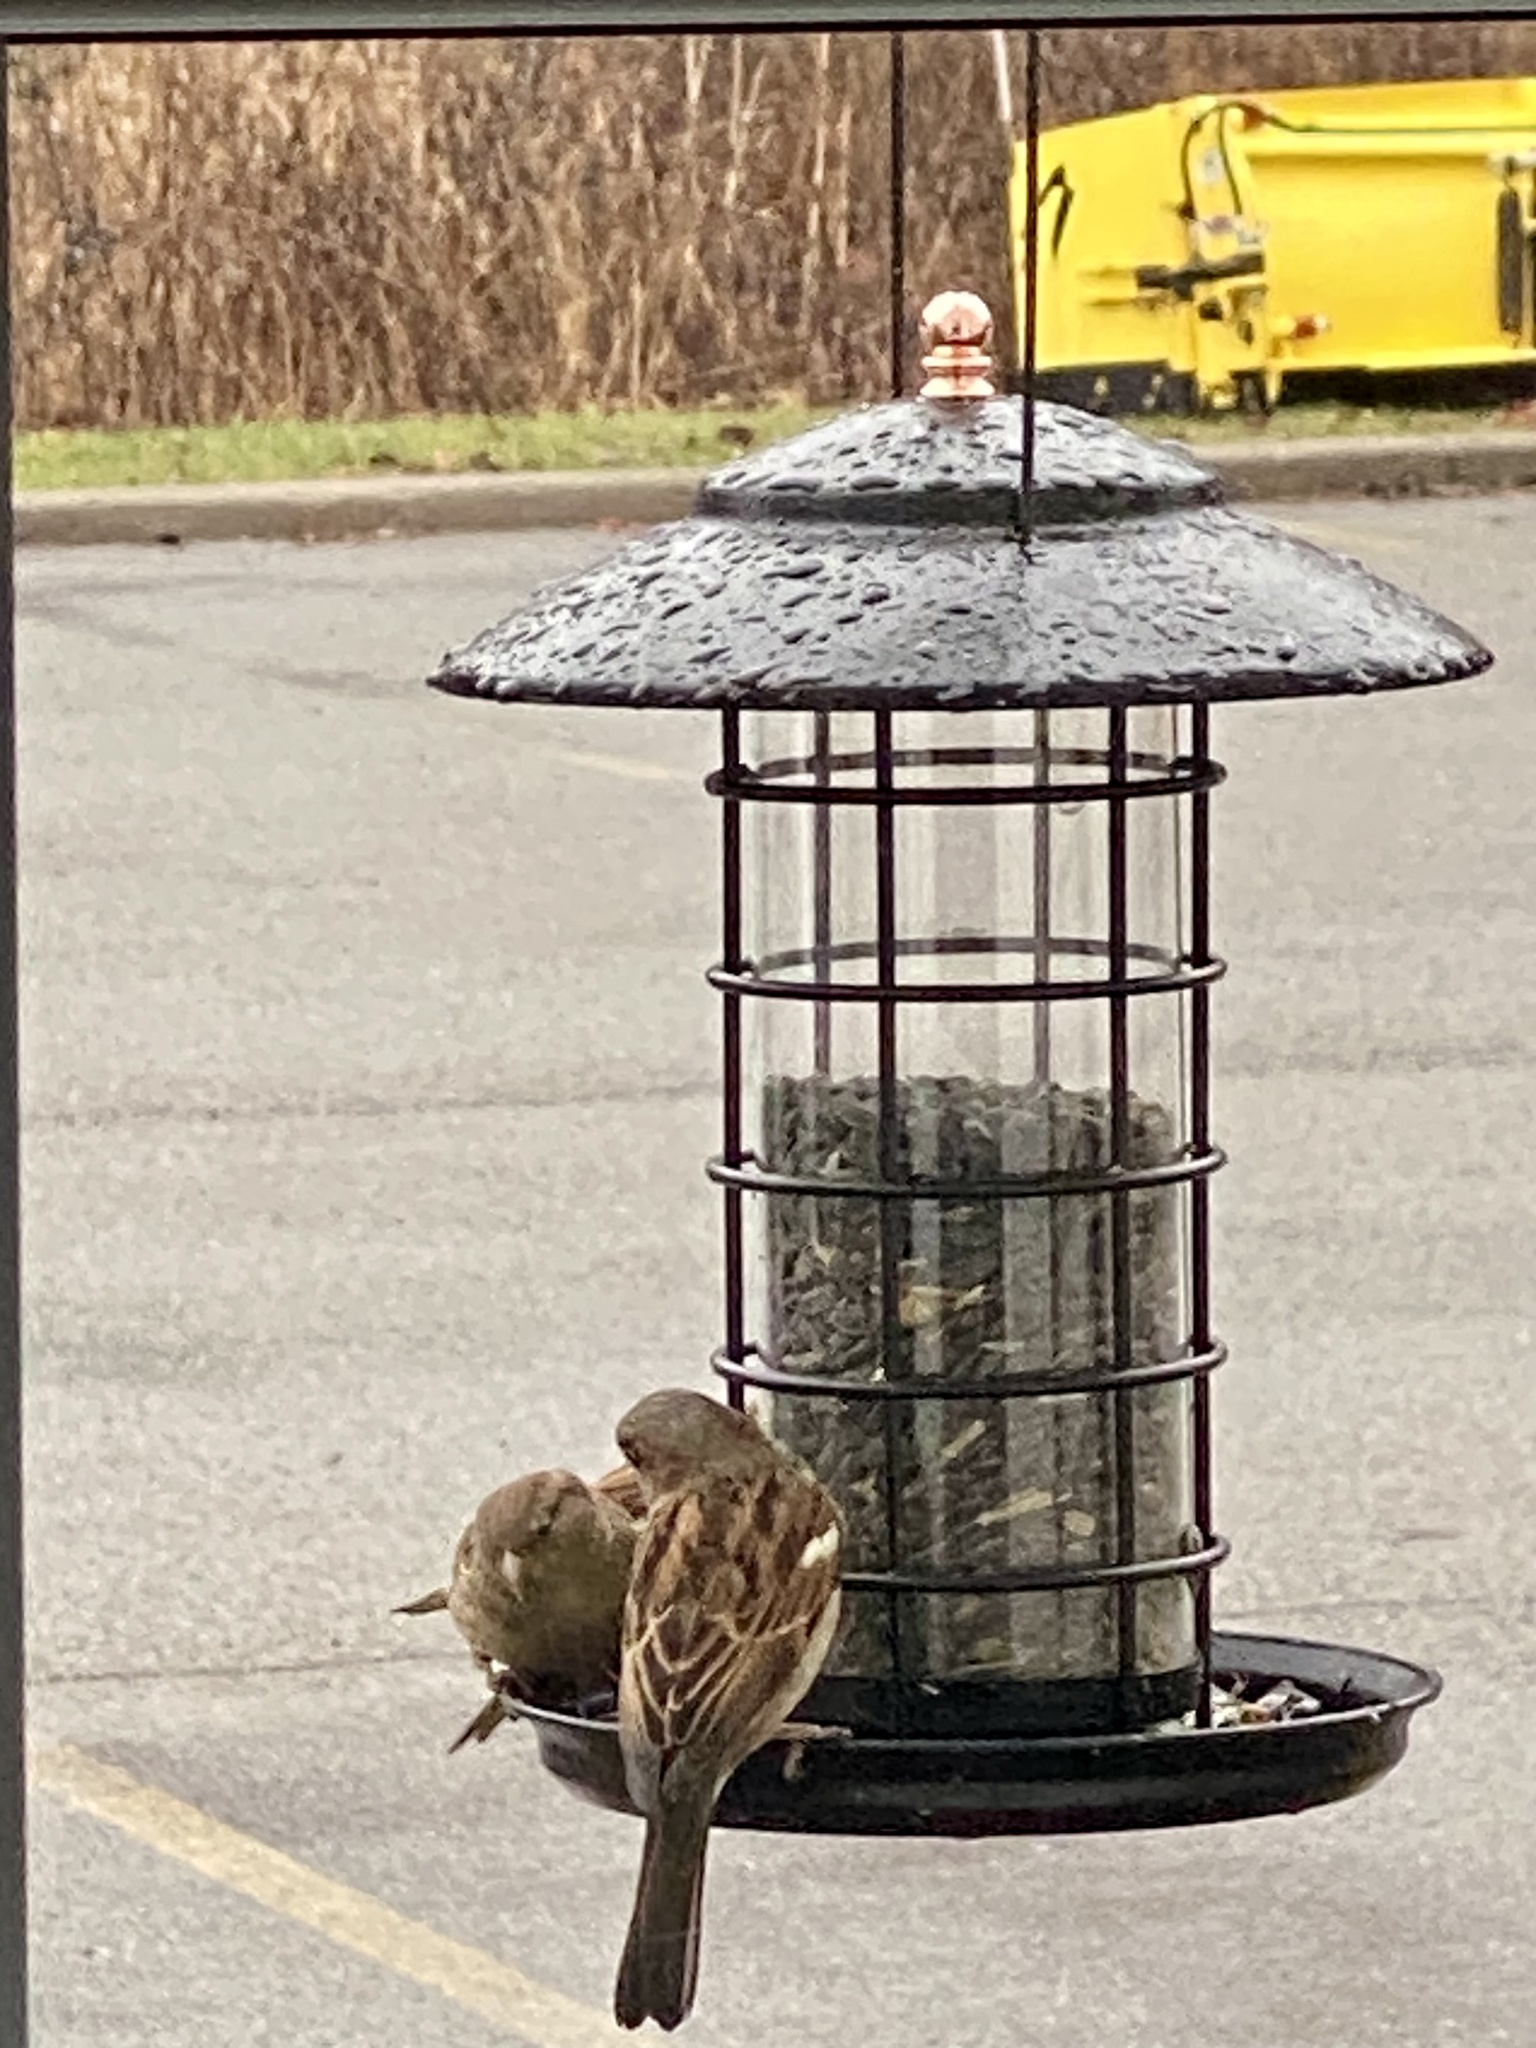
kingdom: Animalia
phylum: Chordata
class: Aves
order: Passeriformes
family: Passeridae
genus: Passer
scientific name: Passer domesticus
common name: House sparrow
